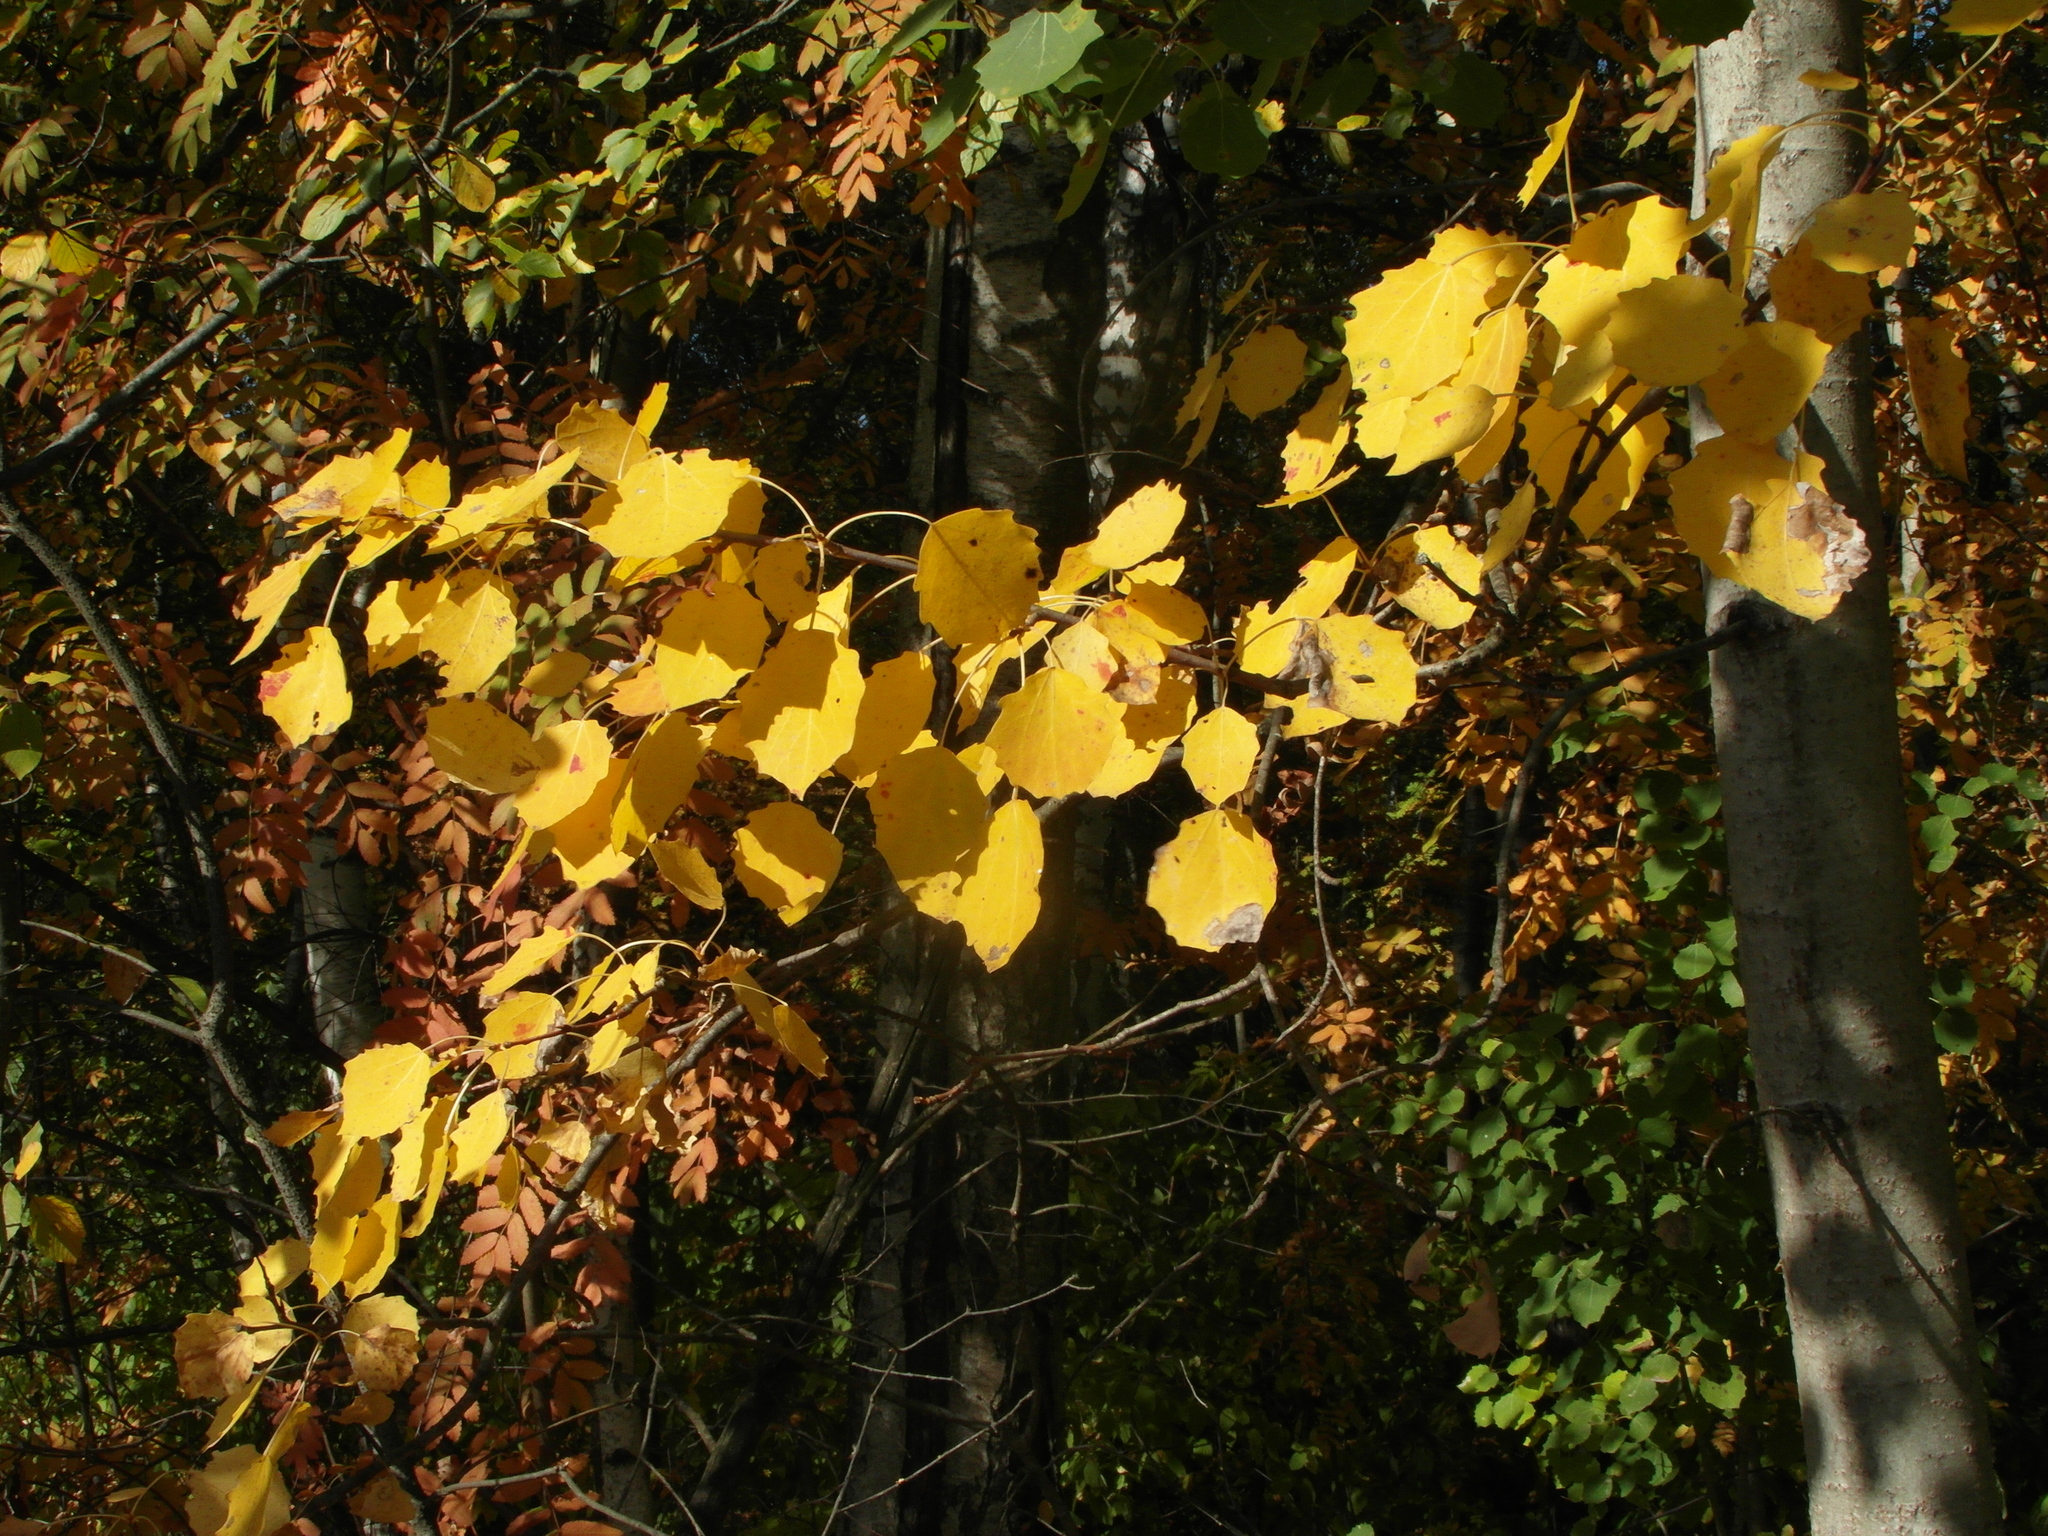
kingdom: Plantae
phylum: Tracheophyta
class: Magnoliopsida
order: Malpighiales
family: Salicaceae
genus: Populus
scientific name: Populus tremula
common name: European aspen
